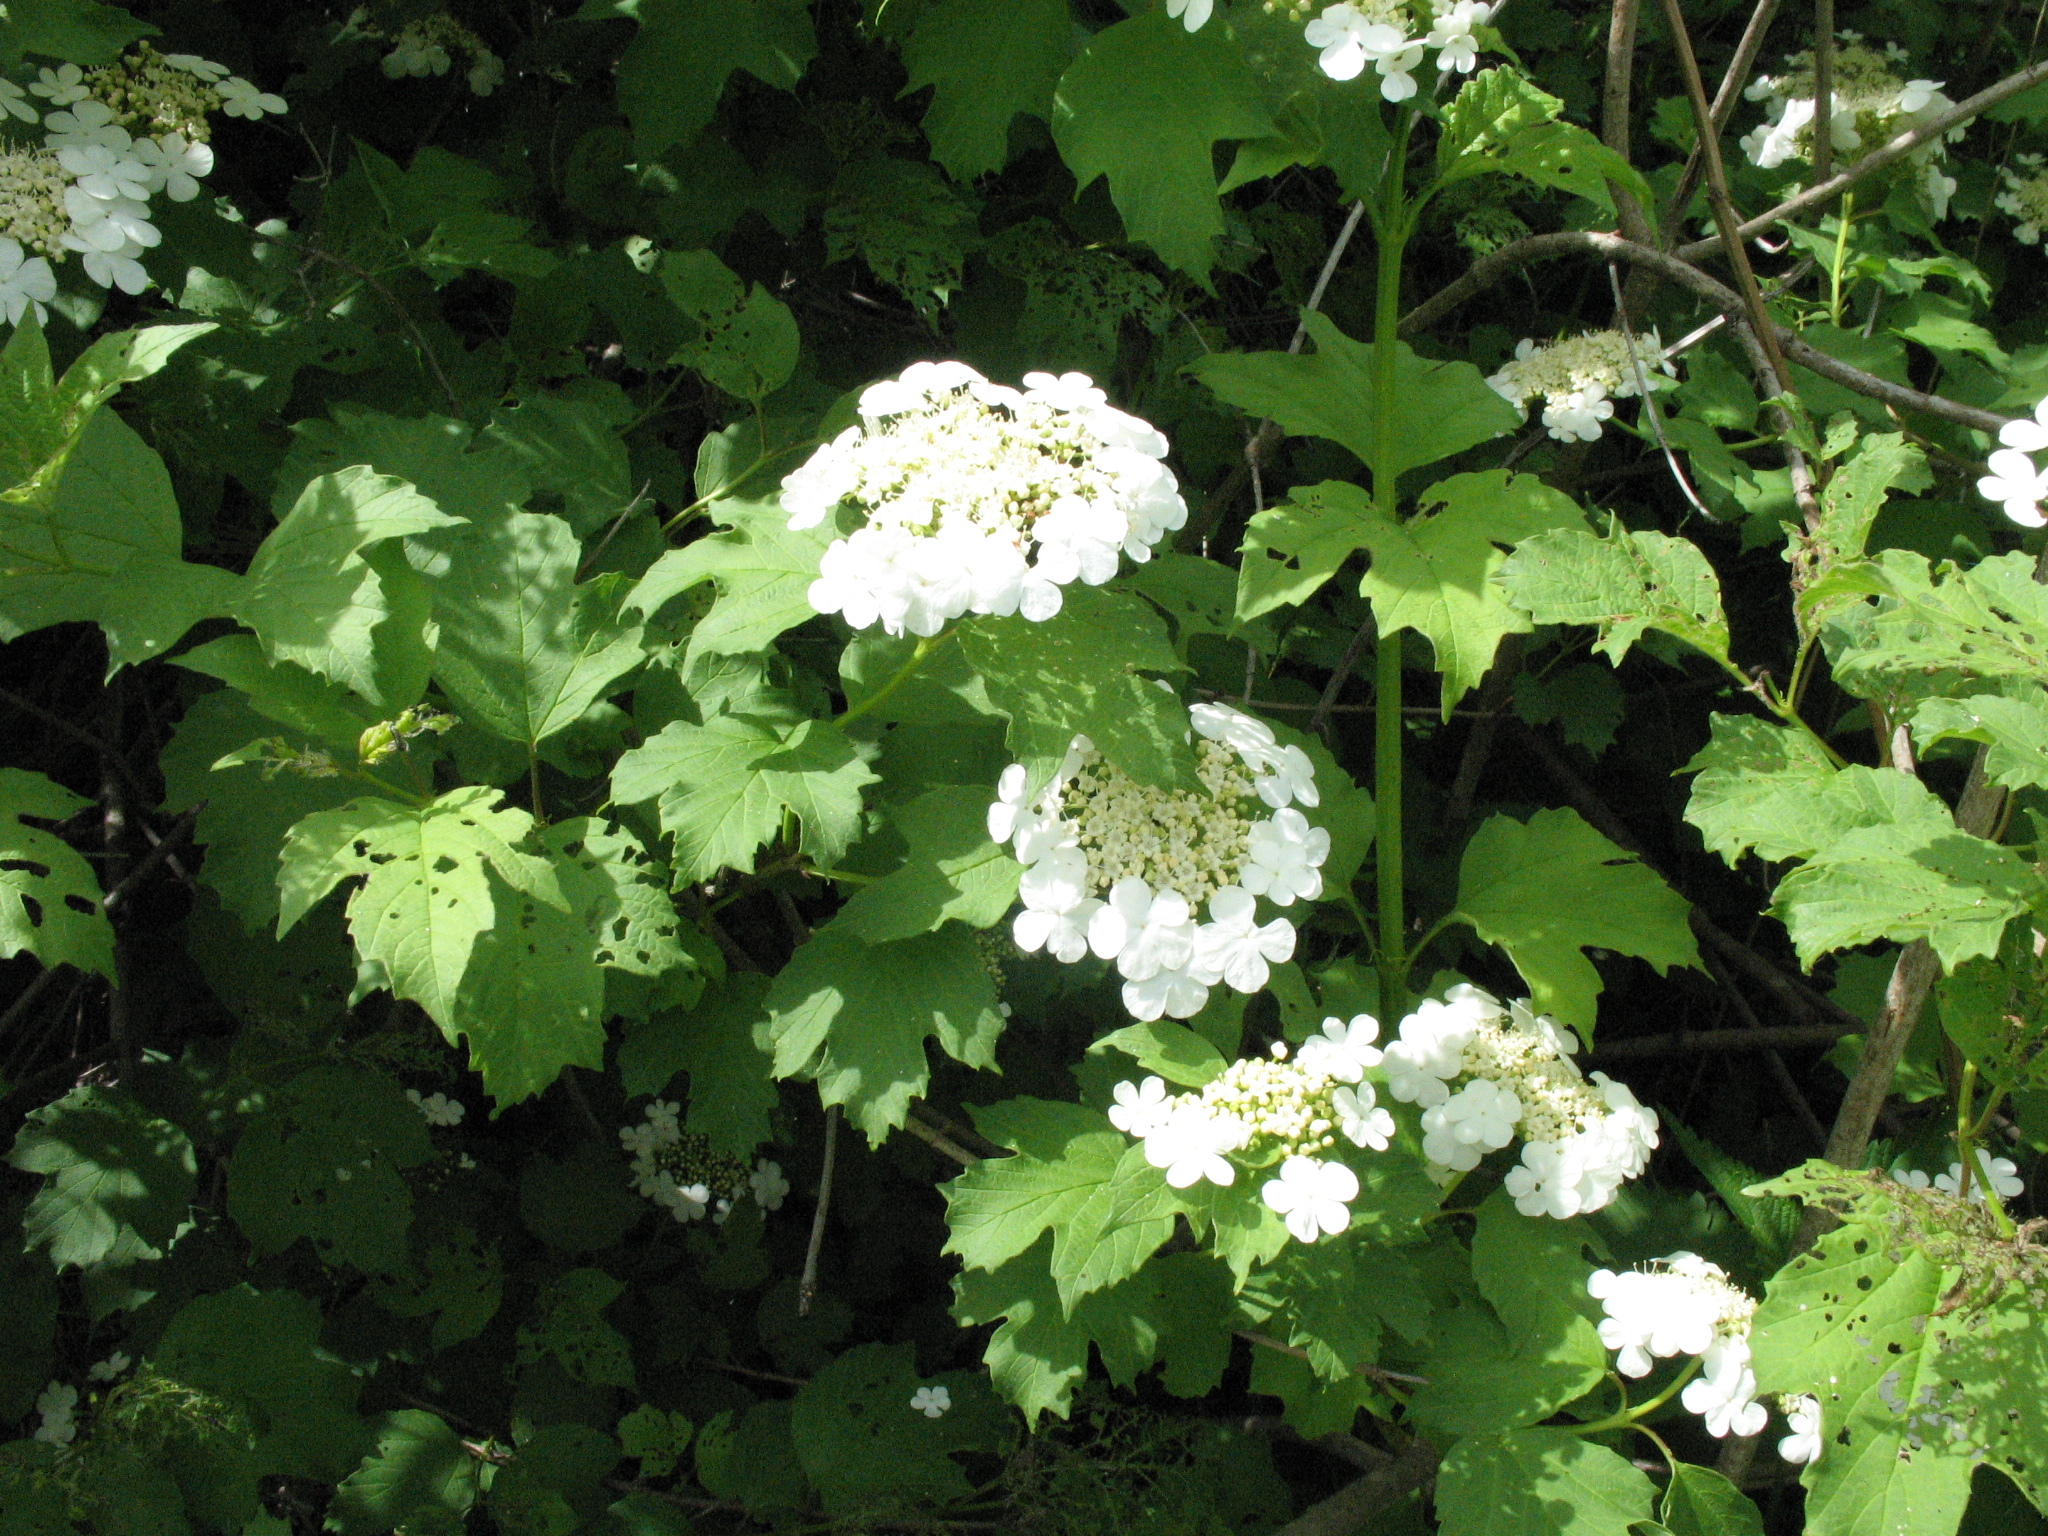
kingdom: Plantae
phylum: Tracheophyta
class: Magnoliopsida
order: Dipsacales
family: Viburnaceae
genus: Viburnum
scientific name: Viburnum opulus
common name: Guelder-rose
